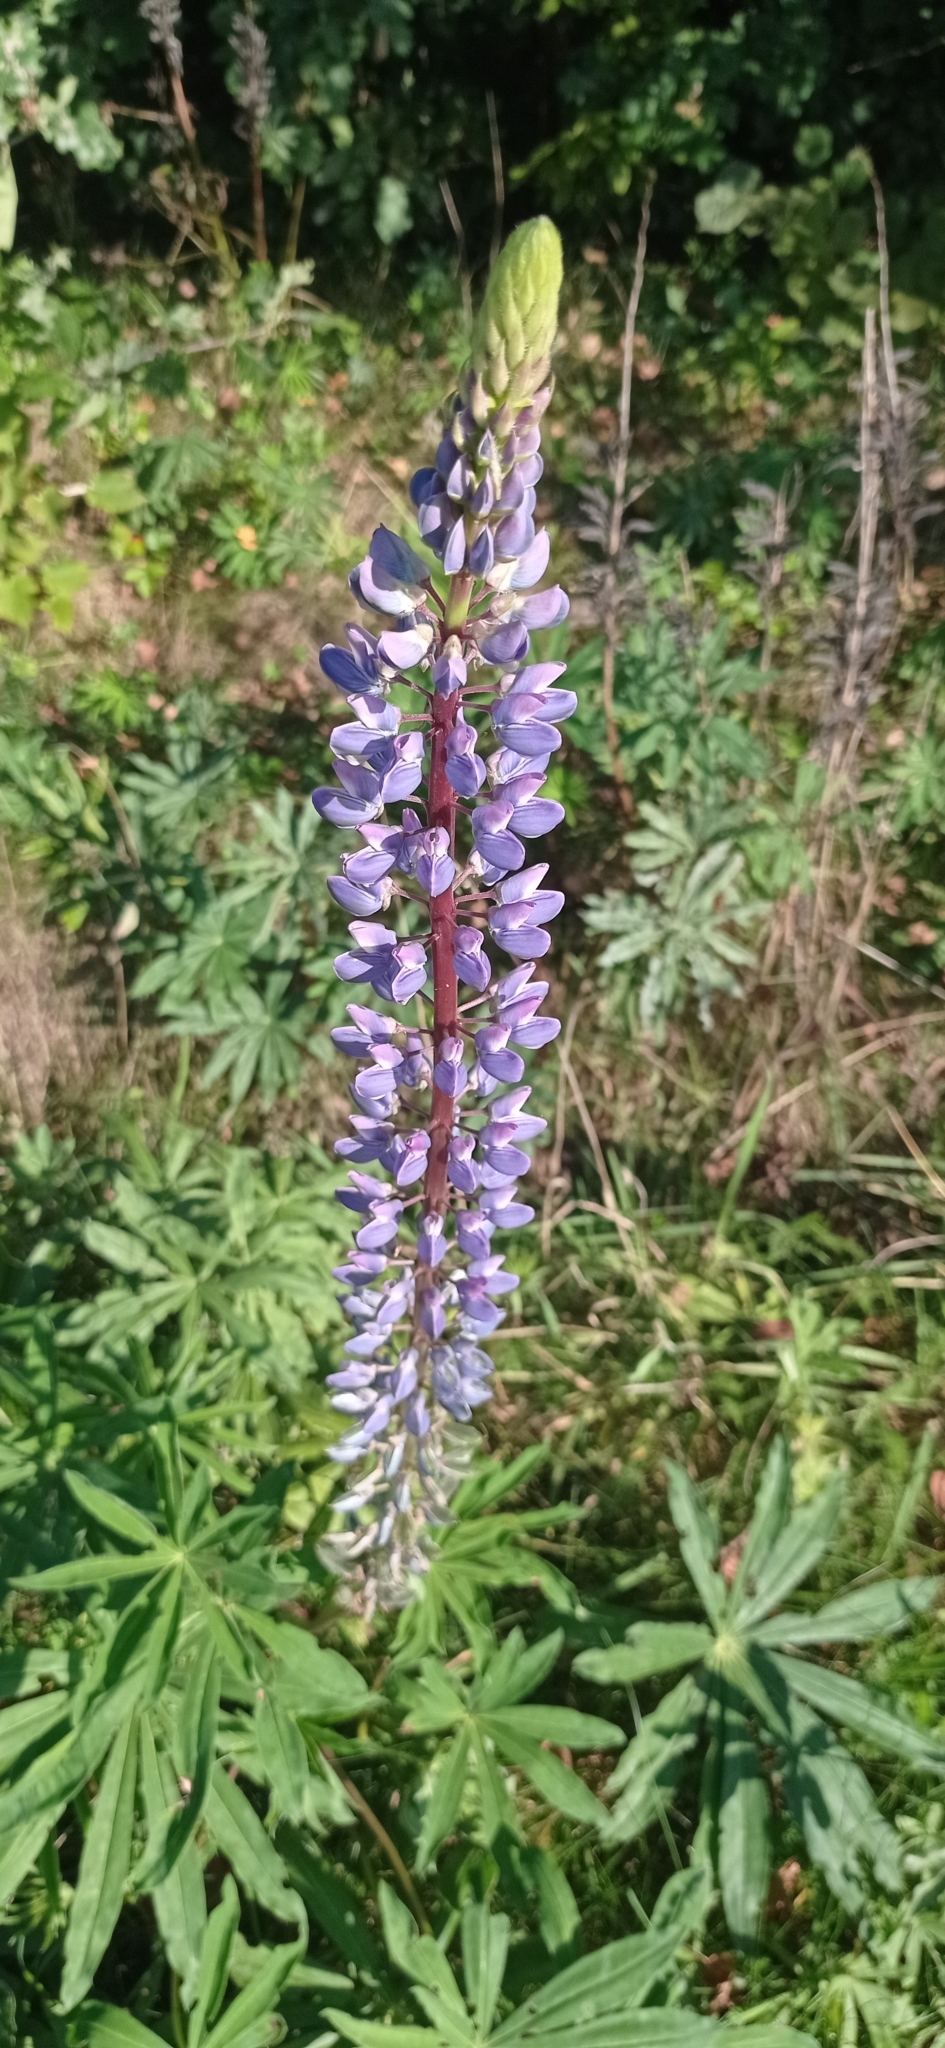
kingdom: Plantae
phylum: Tracheophyta
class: Magnoliopsida
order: Fabales
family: Fabaceae
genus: Lupinus
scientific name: Lupinus polyphyllus
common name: Garden lupin
